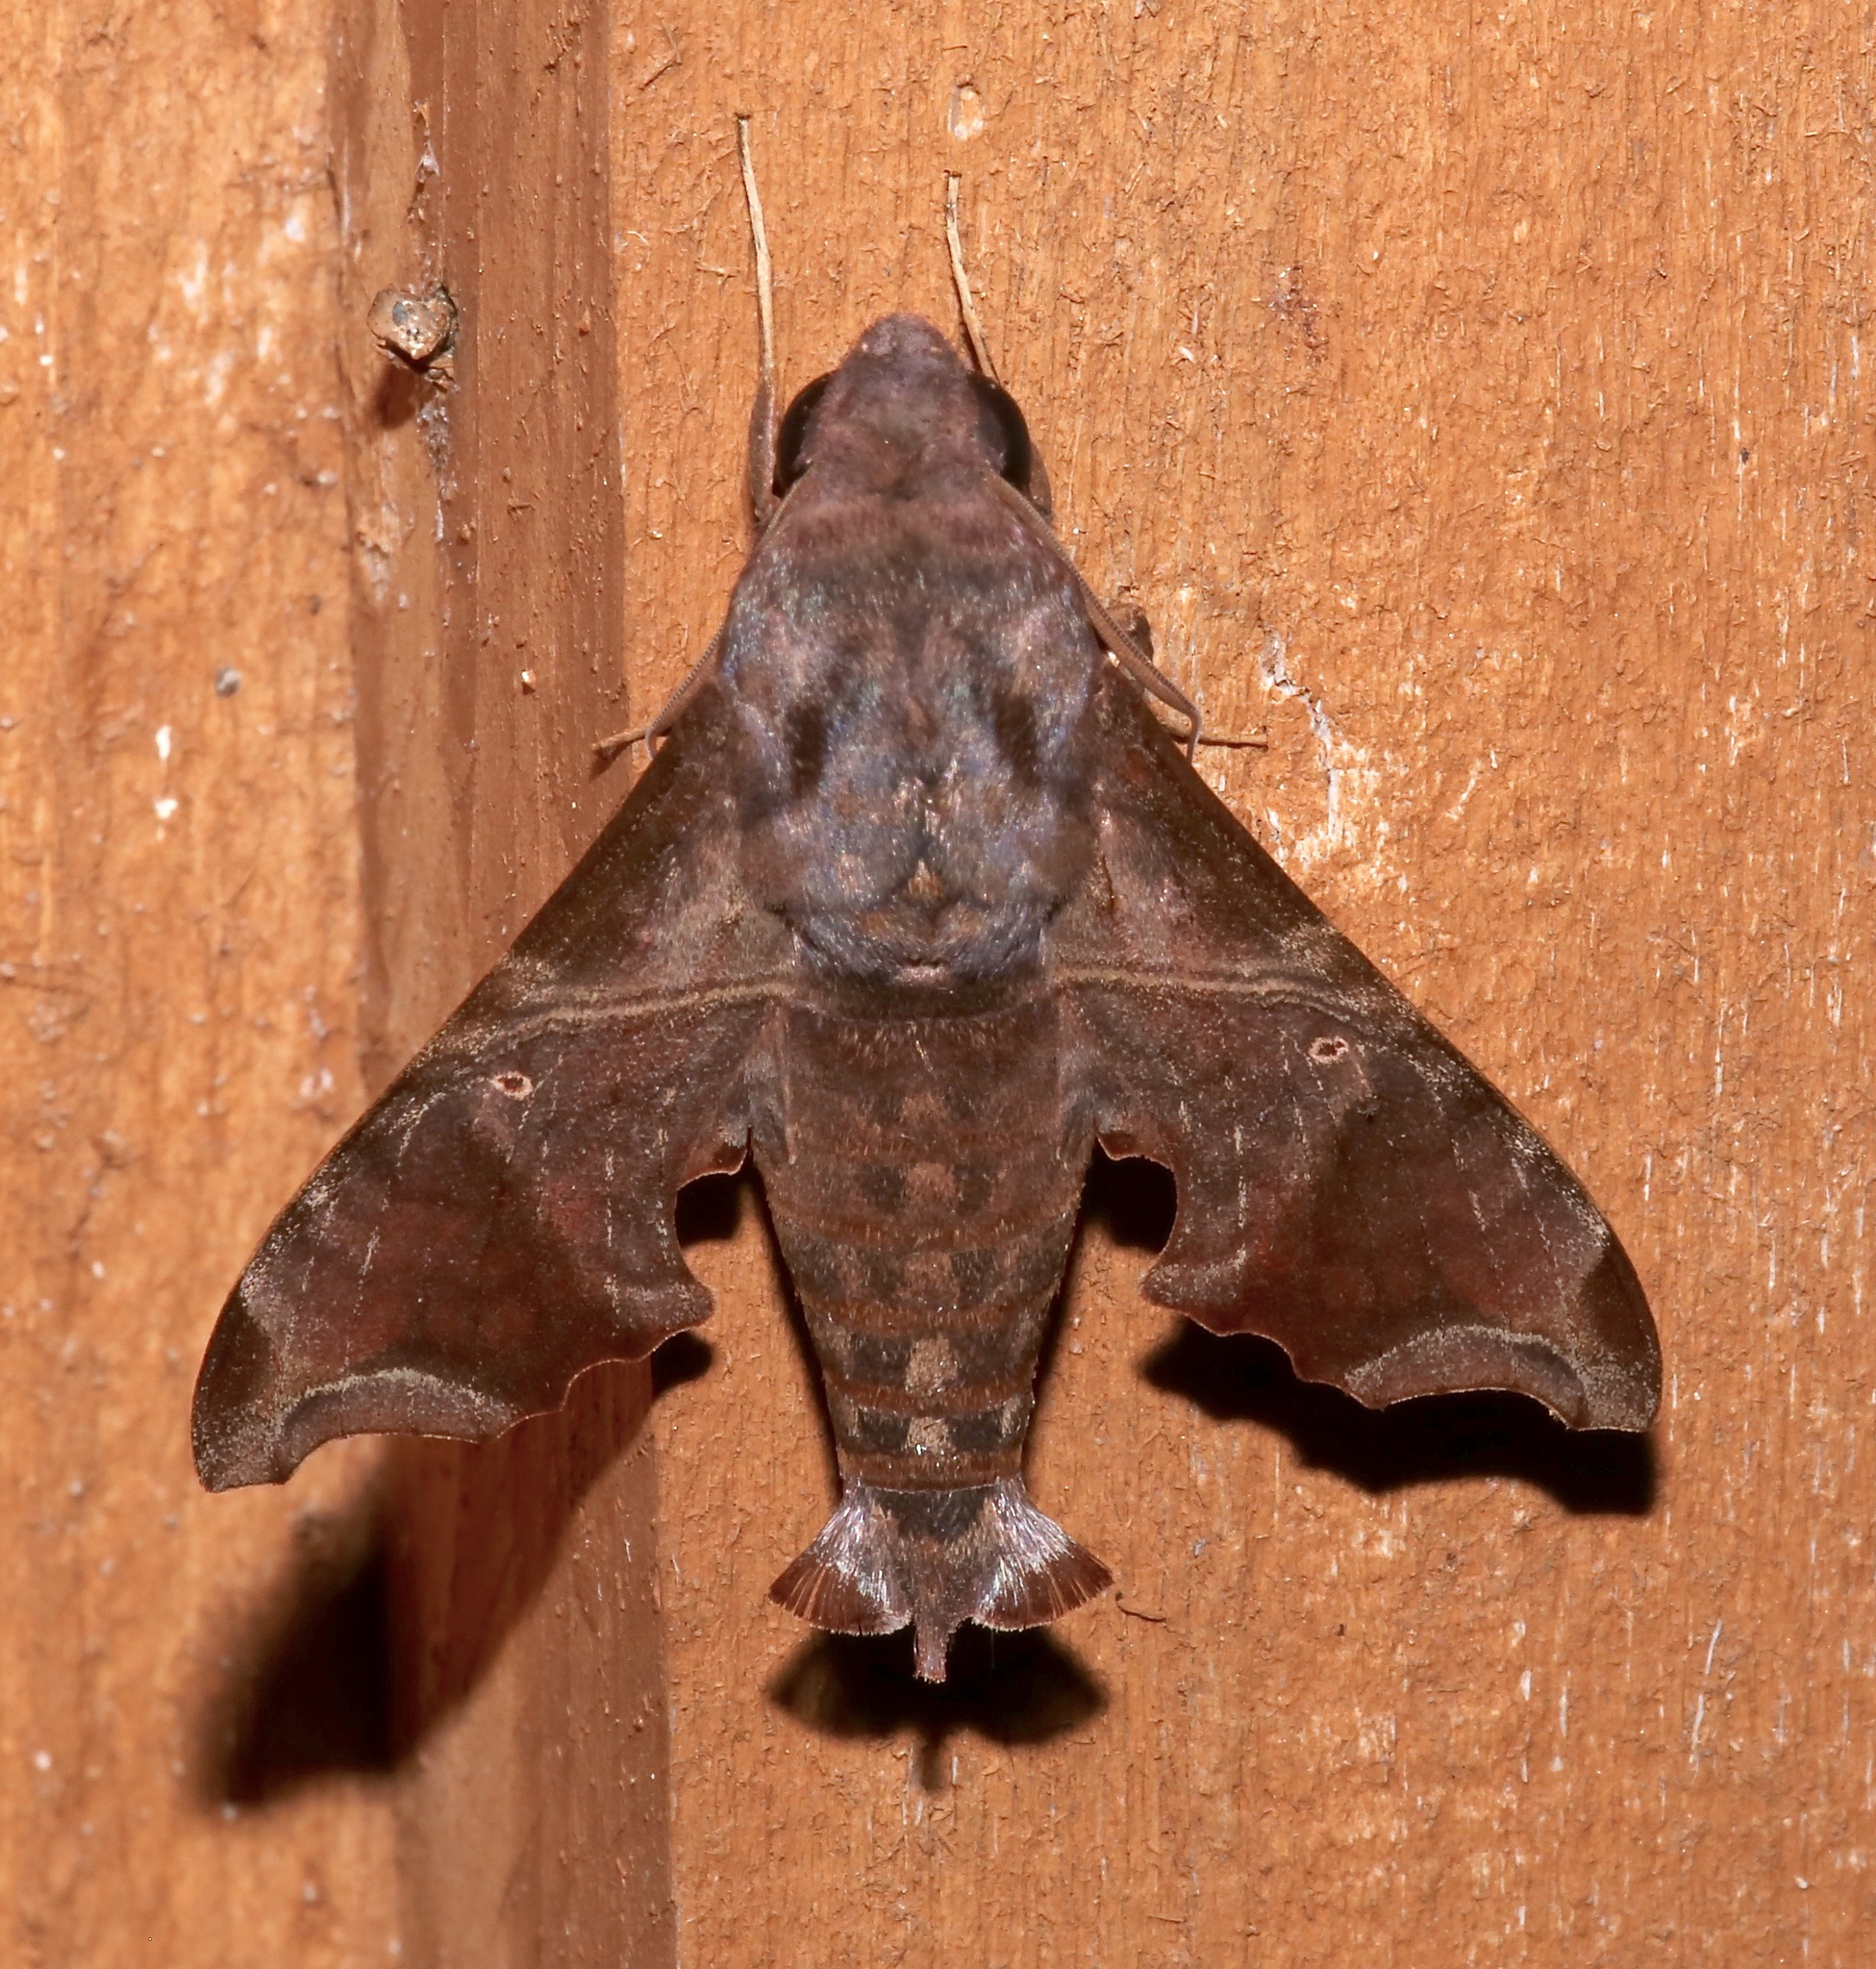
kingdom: Animalia
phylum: Arthropoda
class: Insecta
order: Lepidoptera
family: Sphingidae
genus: Enyo
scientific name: Enyo lugubris
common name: Mournful sphinx
